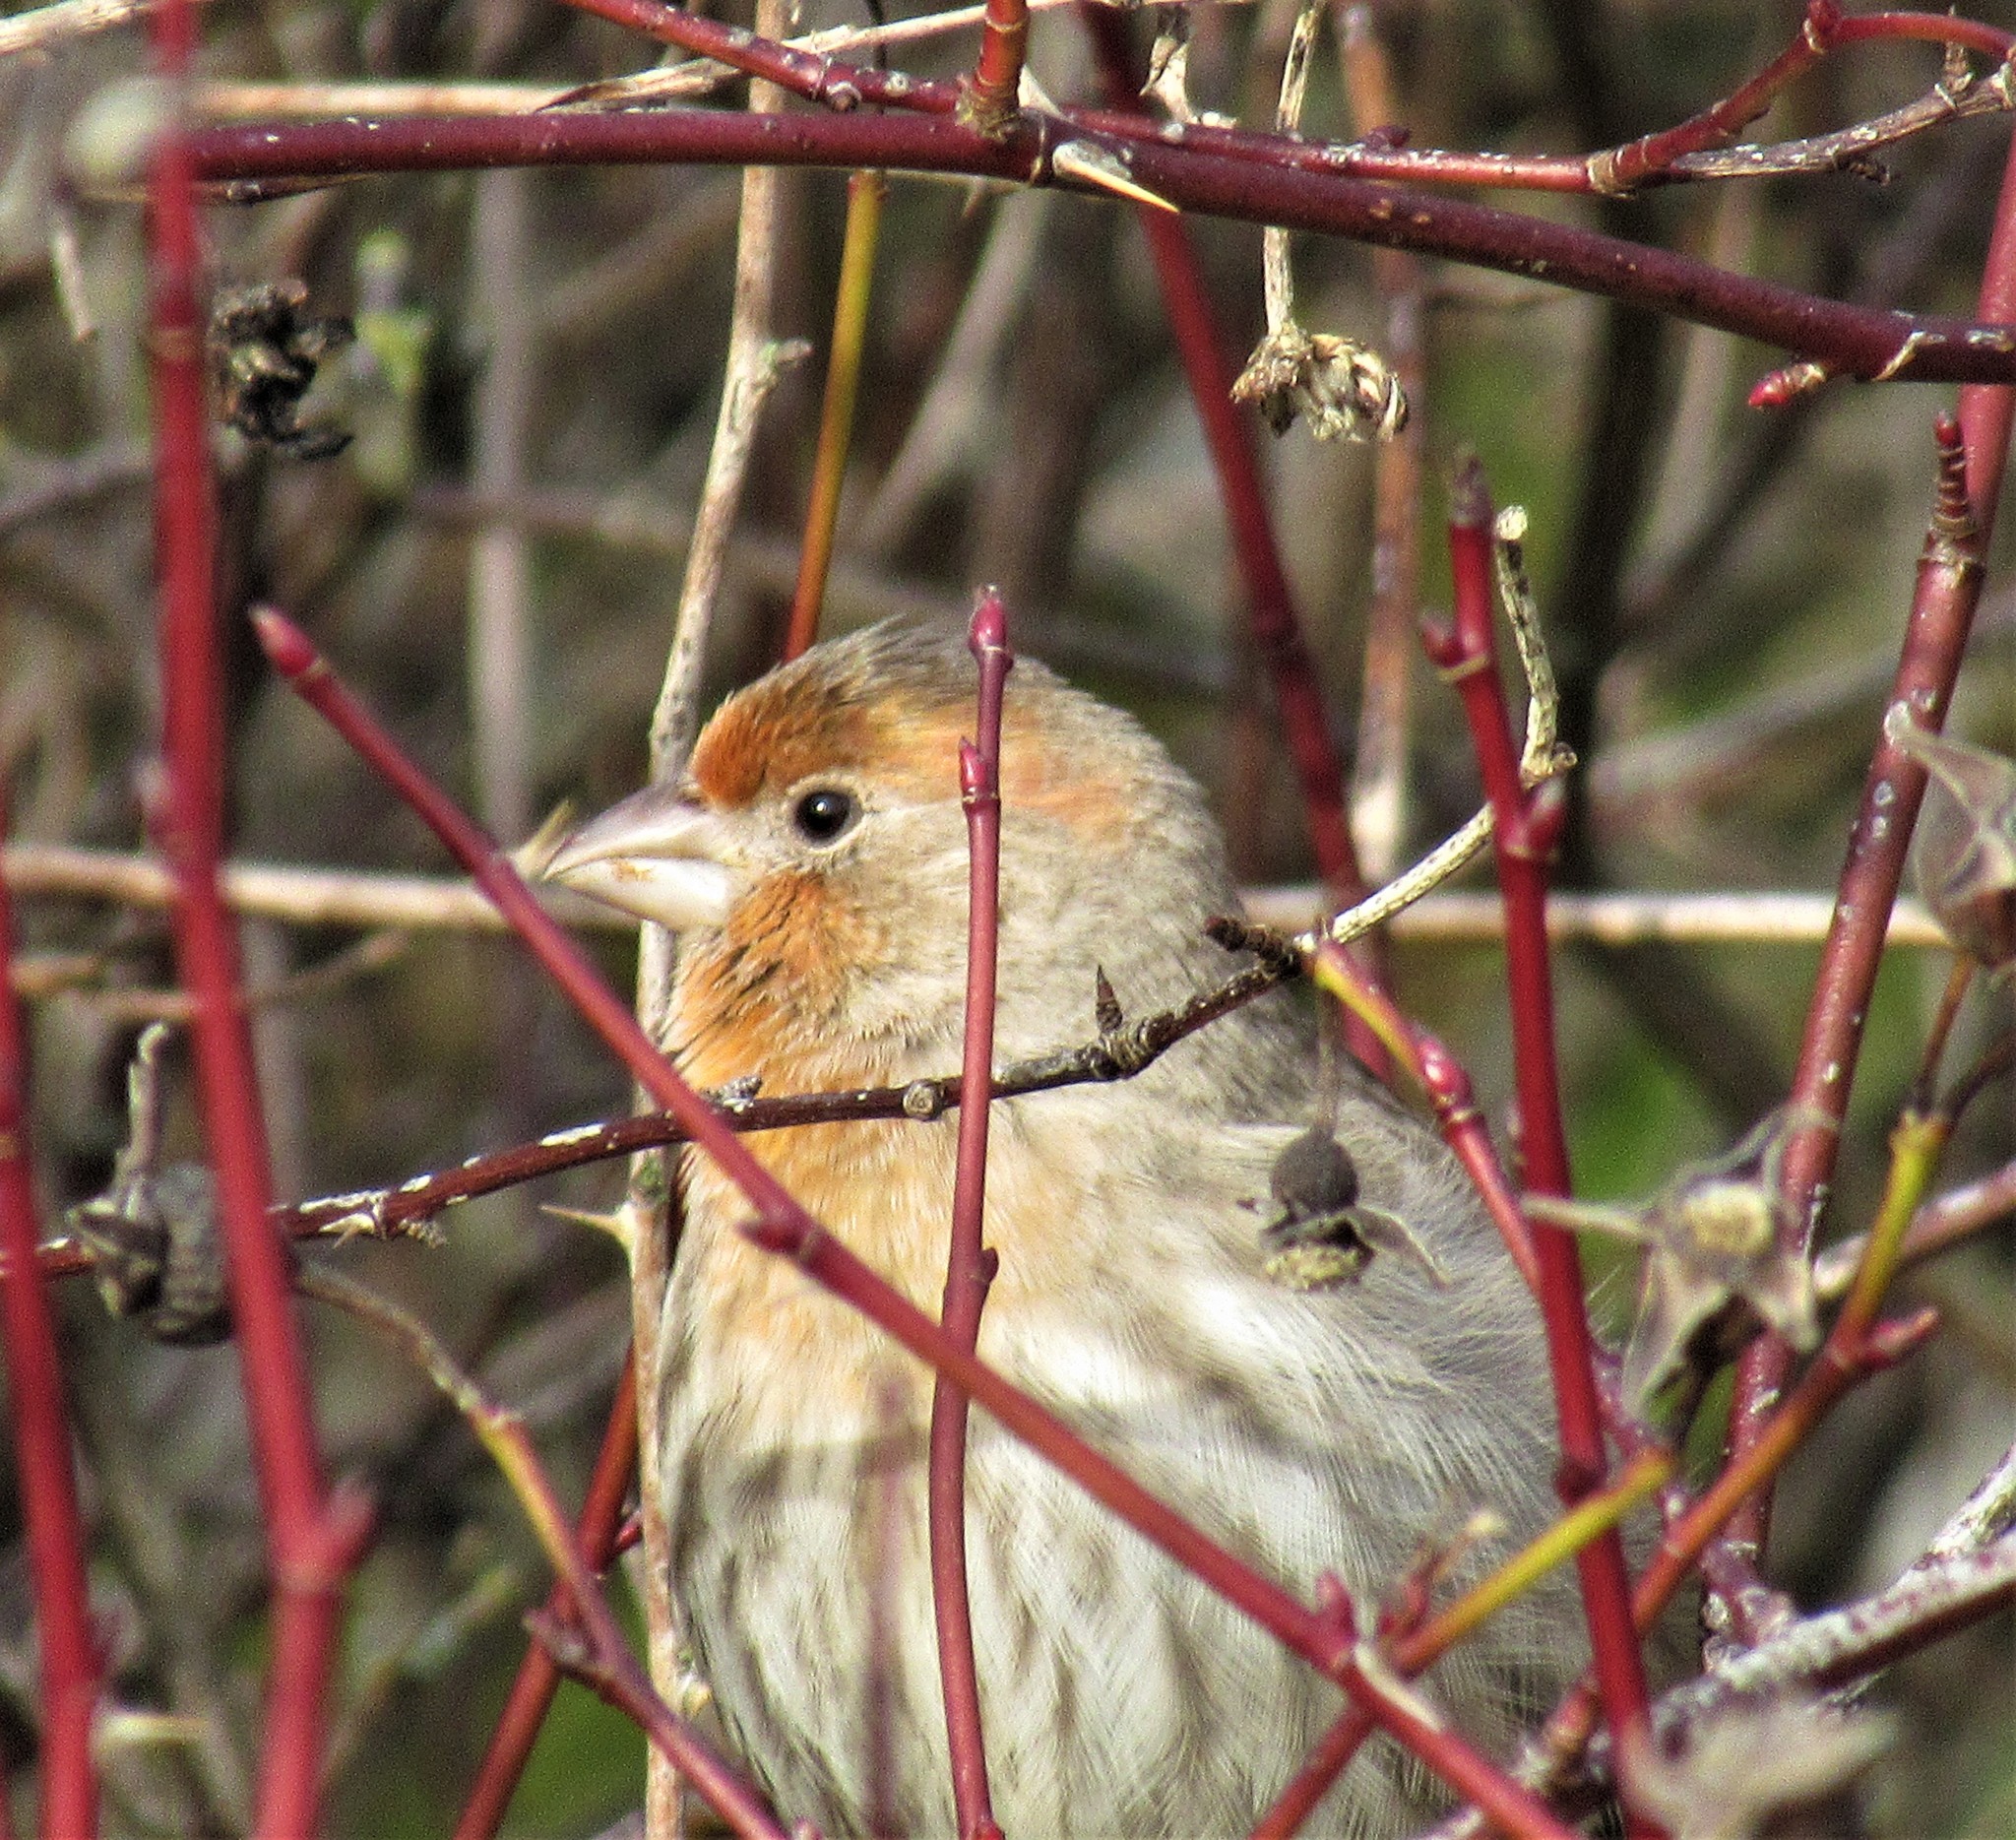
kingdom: Animalia
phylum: Chordata
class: Aves
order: Passeriformes
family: Fringillidae
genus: Haemorhous
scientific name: Haemorhous mexicanus
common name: House finch
